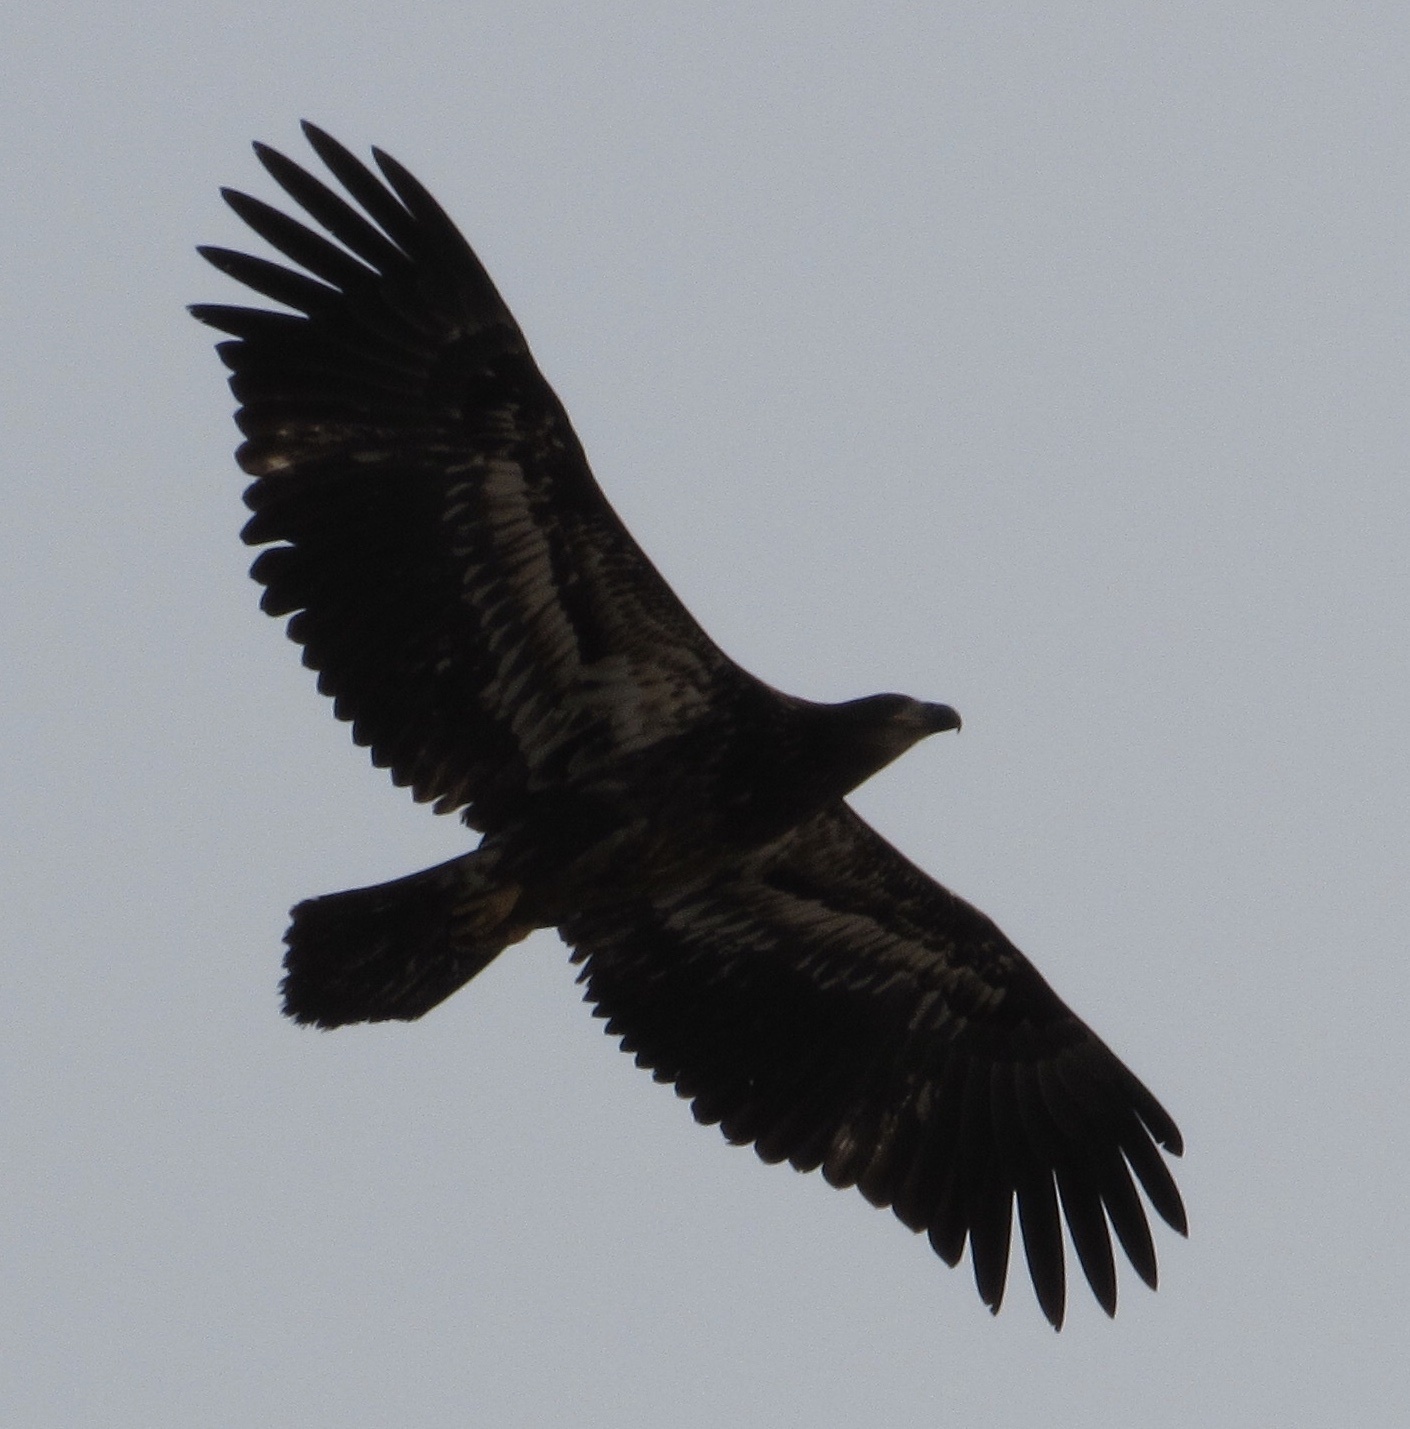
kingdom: Animalia
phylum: Chordata
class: Aves
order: Accipitriformes
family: Accipitridae
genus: Haliaeetus
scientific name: Haliaeetus leucocephalus
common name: Bald eagle
